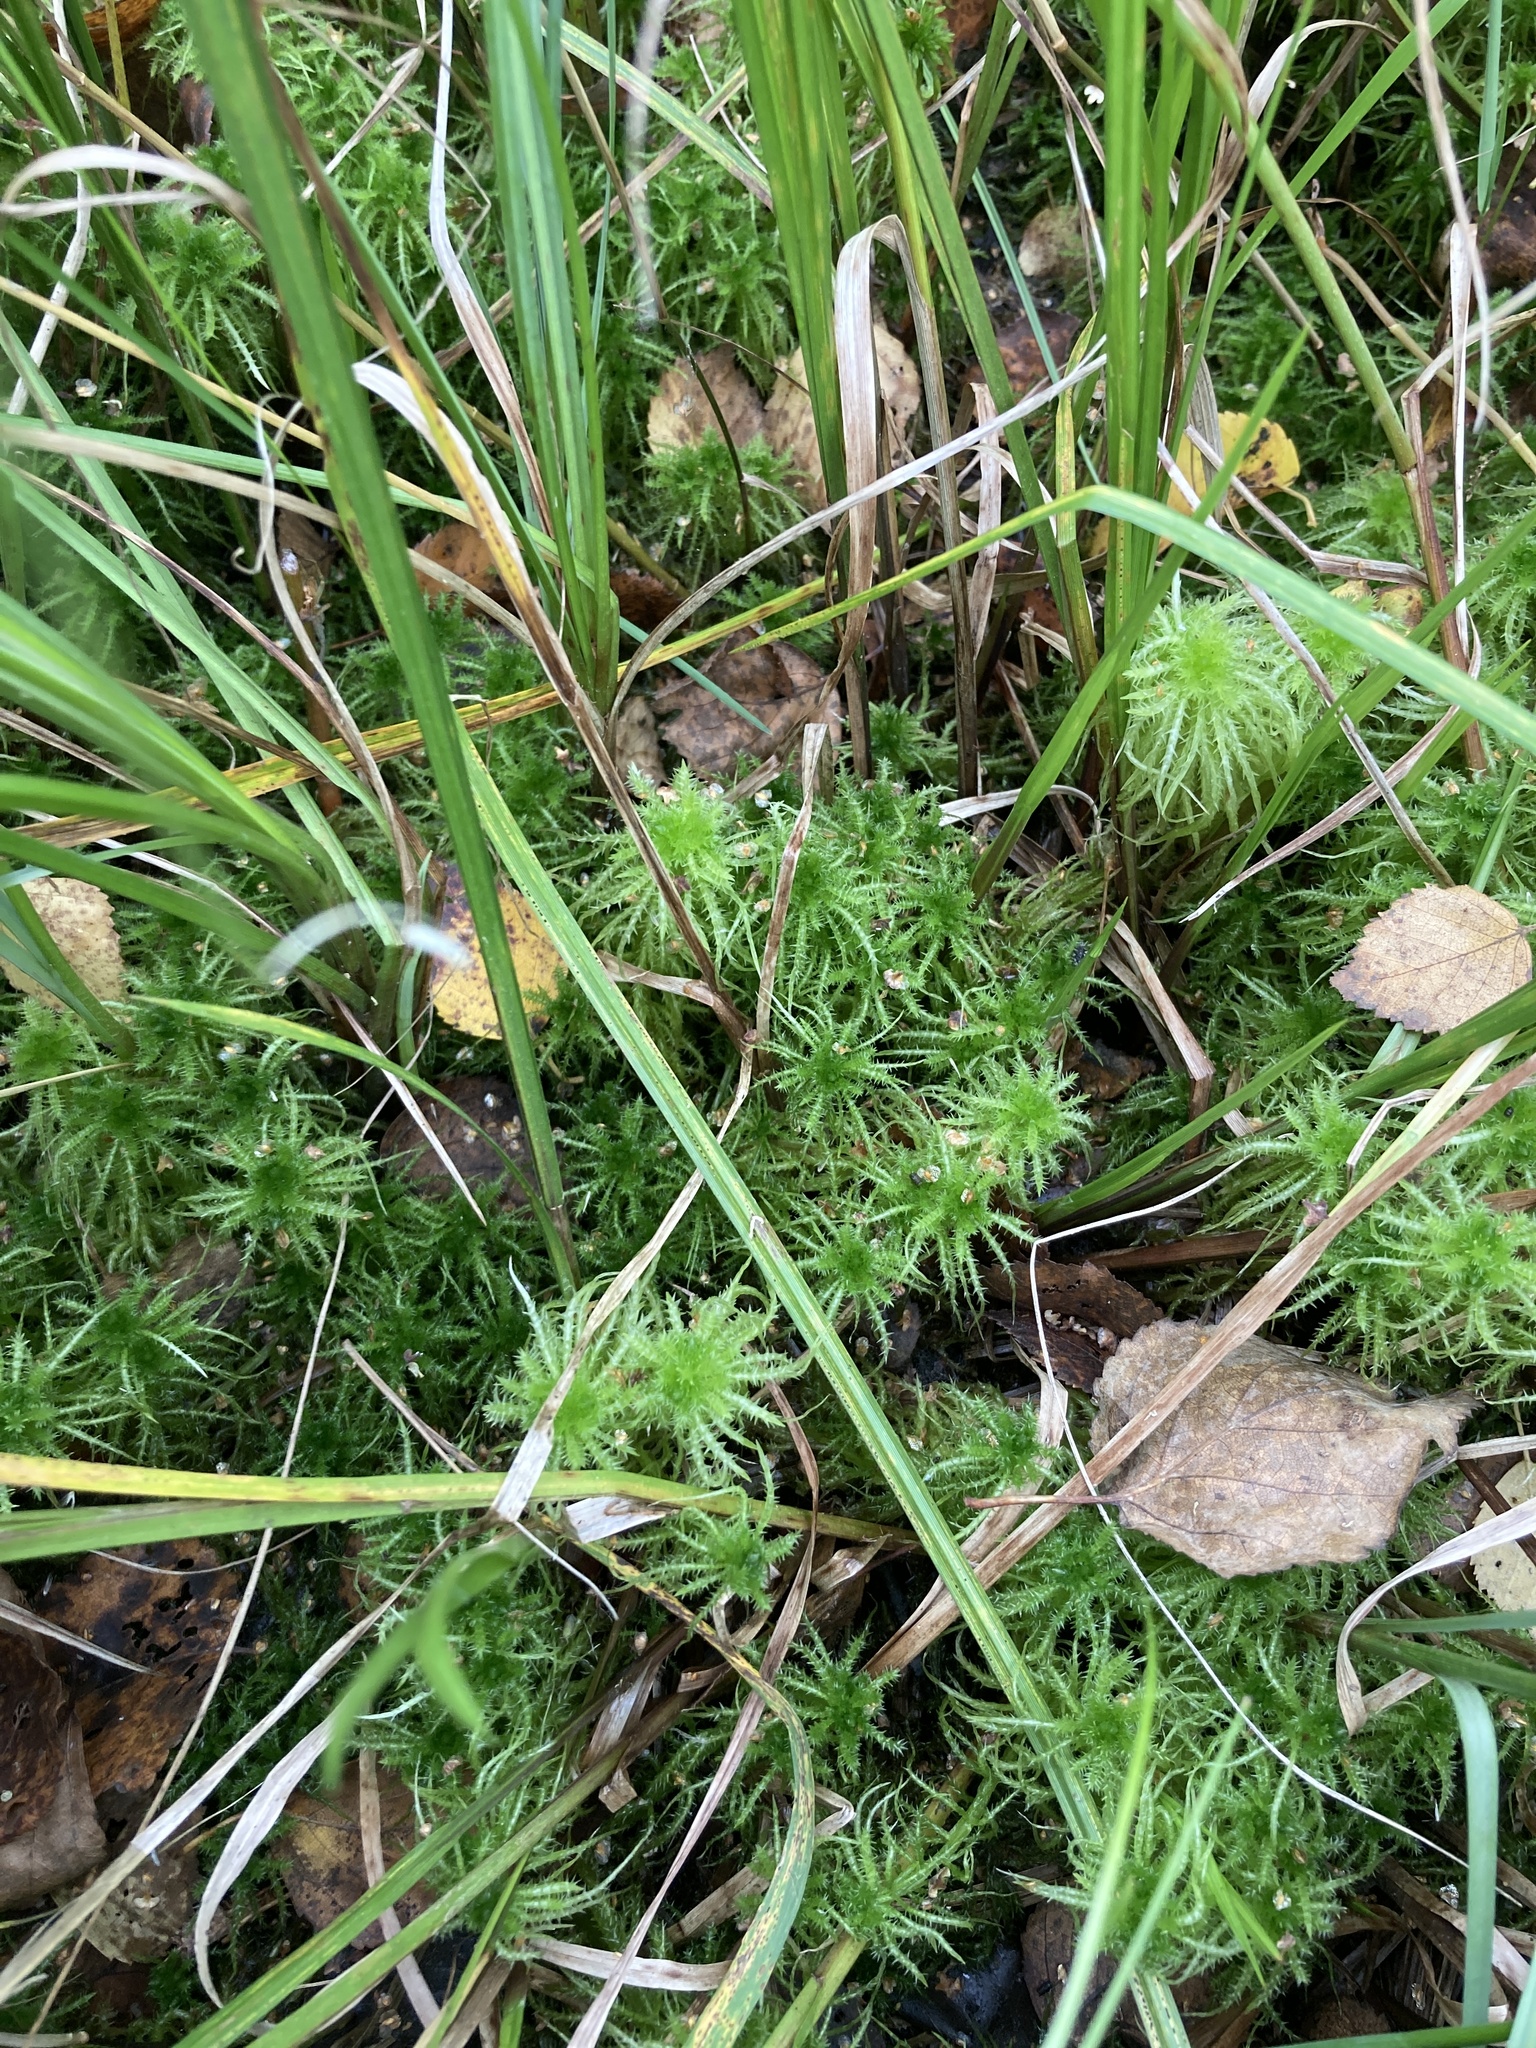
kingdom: Plantae
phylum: Bryophyta
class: Sphagnopsida
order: Sphagnales
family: Sphagnaceae
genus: Sphagnum
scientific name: Sphagnum squarrosum
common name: Shaggy peat moss
